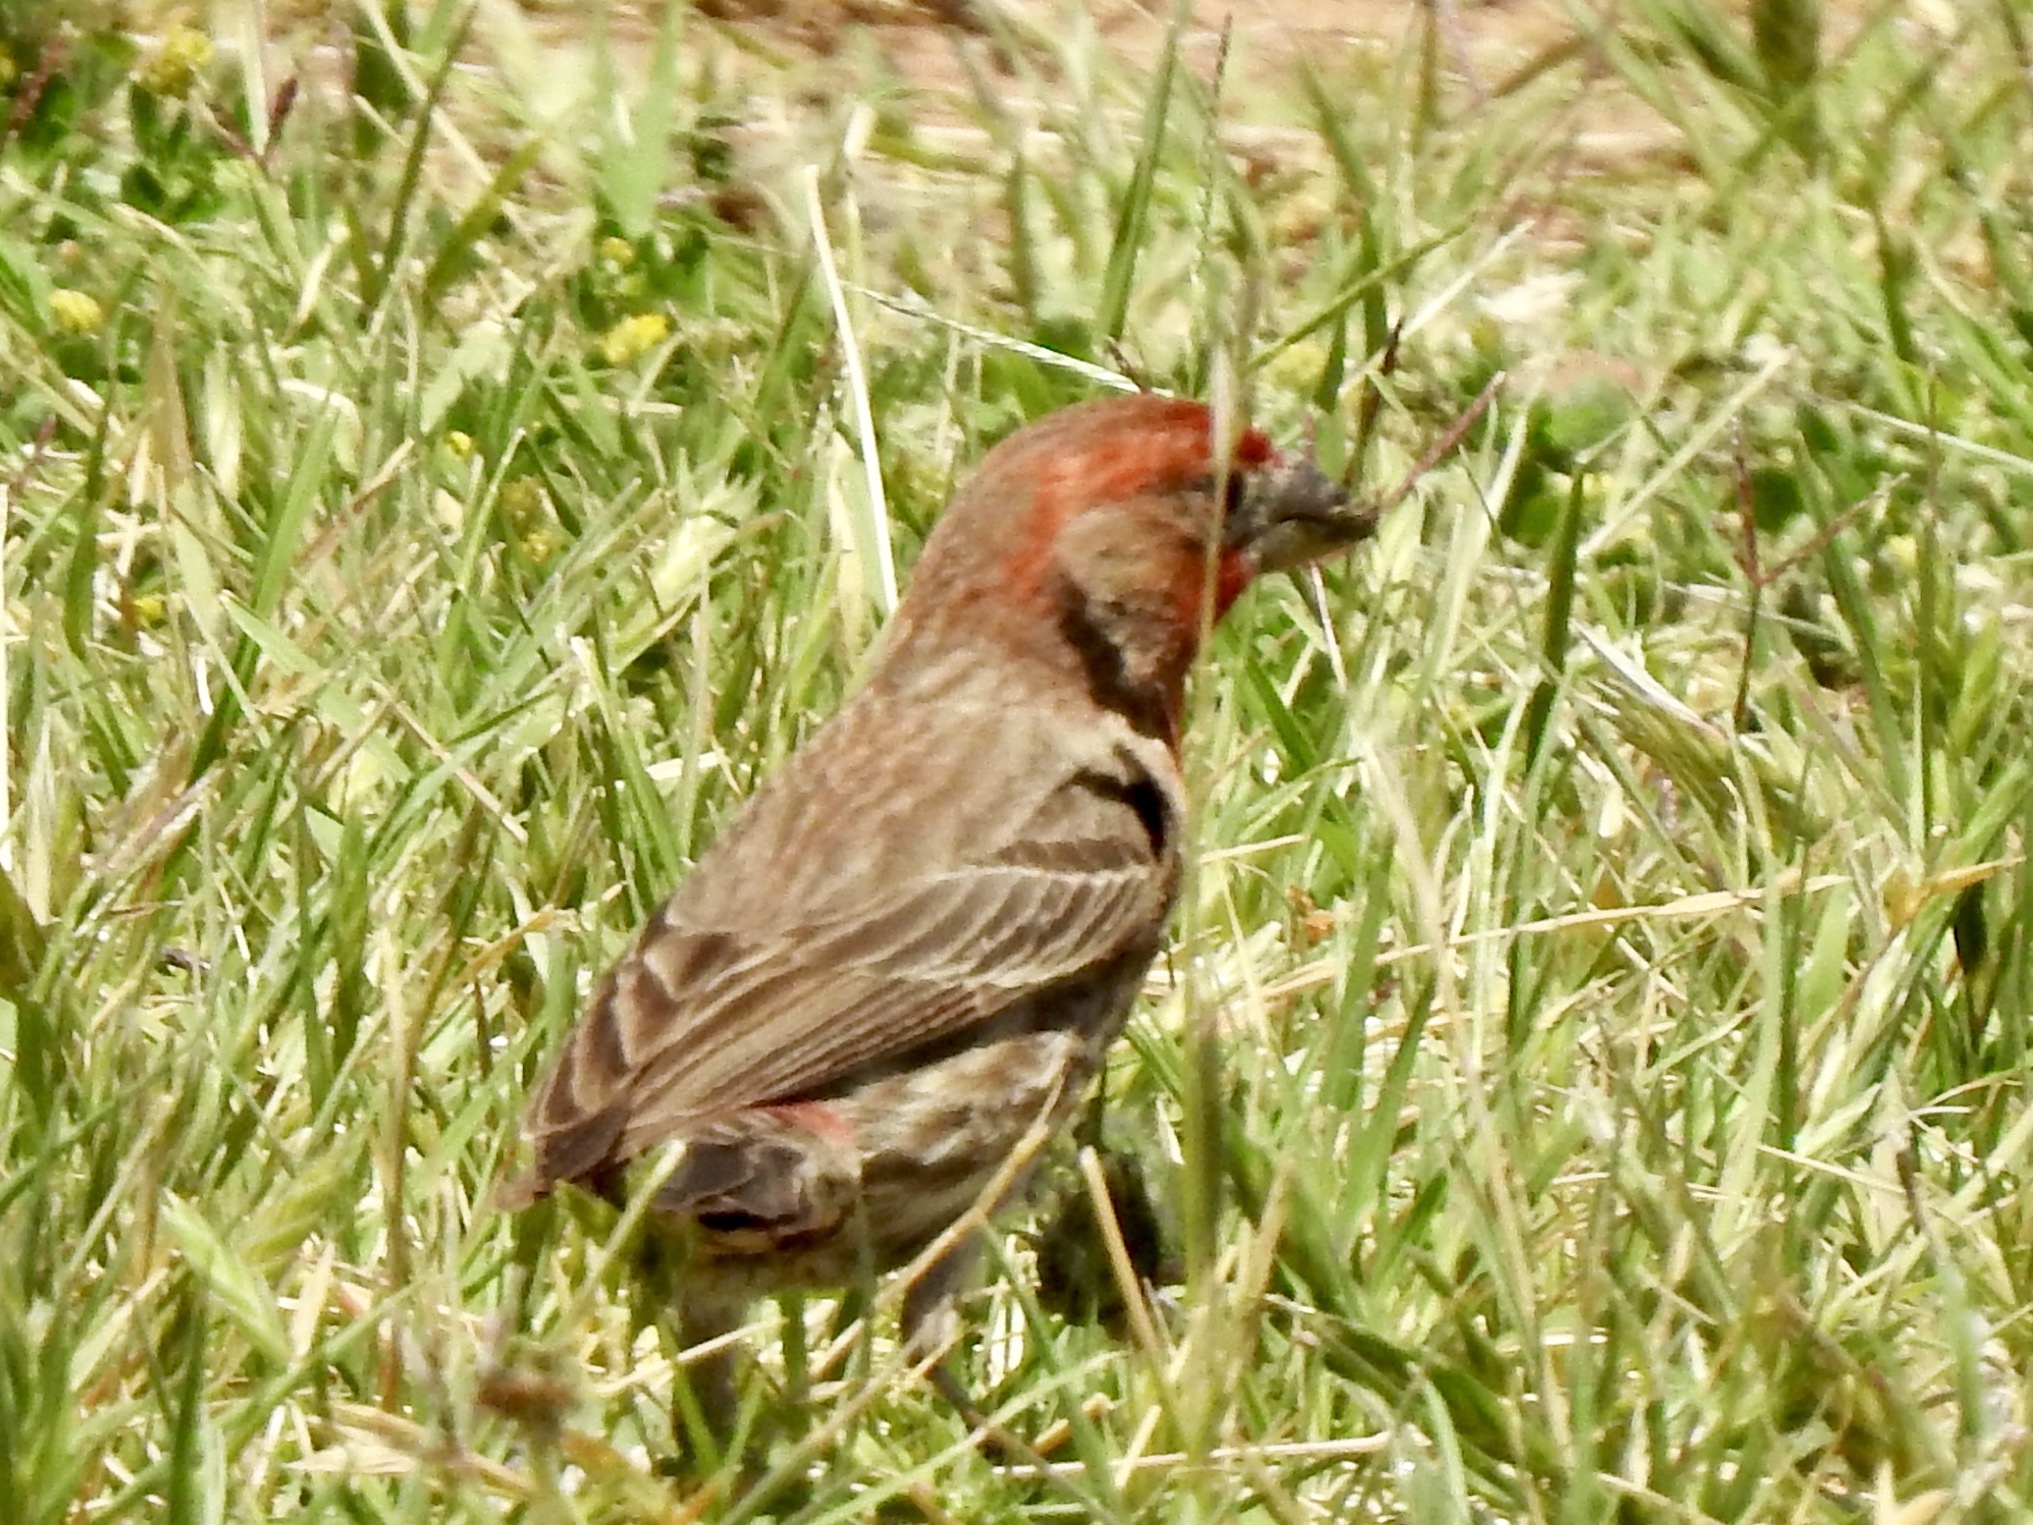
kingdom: Animalia
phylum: Chordata
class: Aves
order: Passeriformes
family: Fringillidae
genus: Haemorhous
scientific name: Haemorhous mexicanus
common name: House finch
